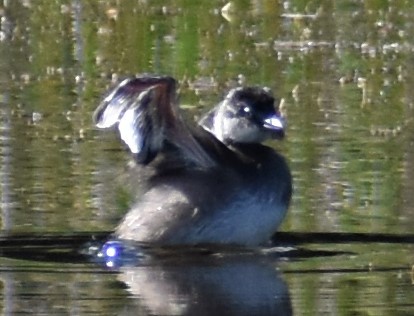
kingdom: Animalia
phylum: Chordata
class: Aves
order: Podicipediformes
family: Podicipedidae
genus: Tachybaptus
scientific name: Tachybaptus dominicus
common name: Least grebe
